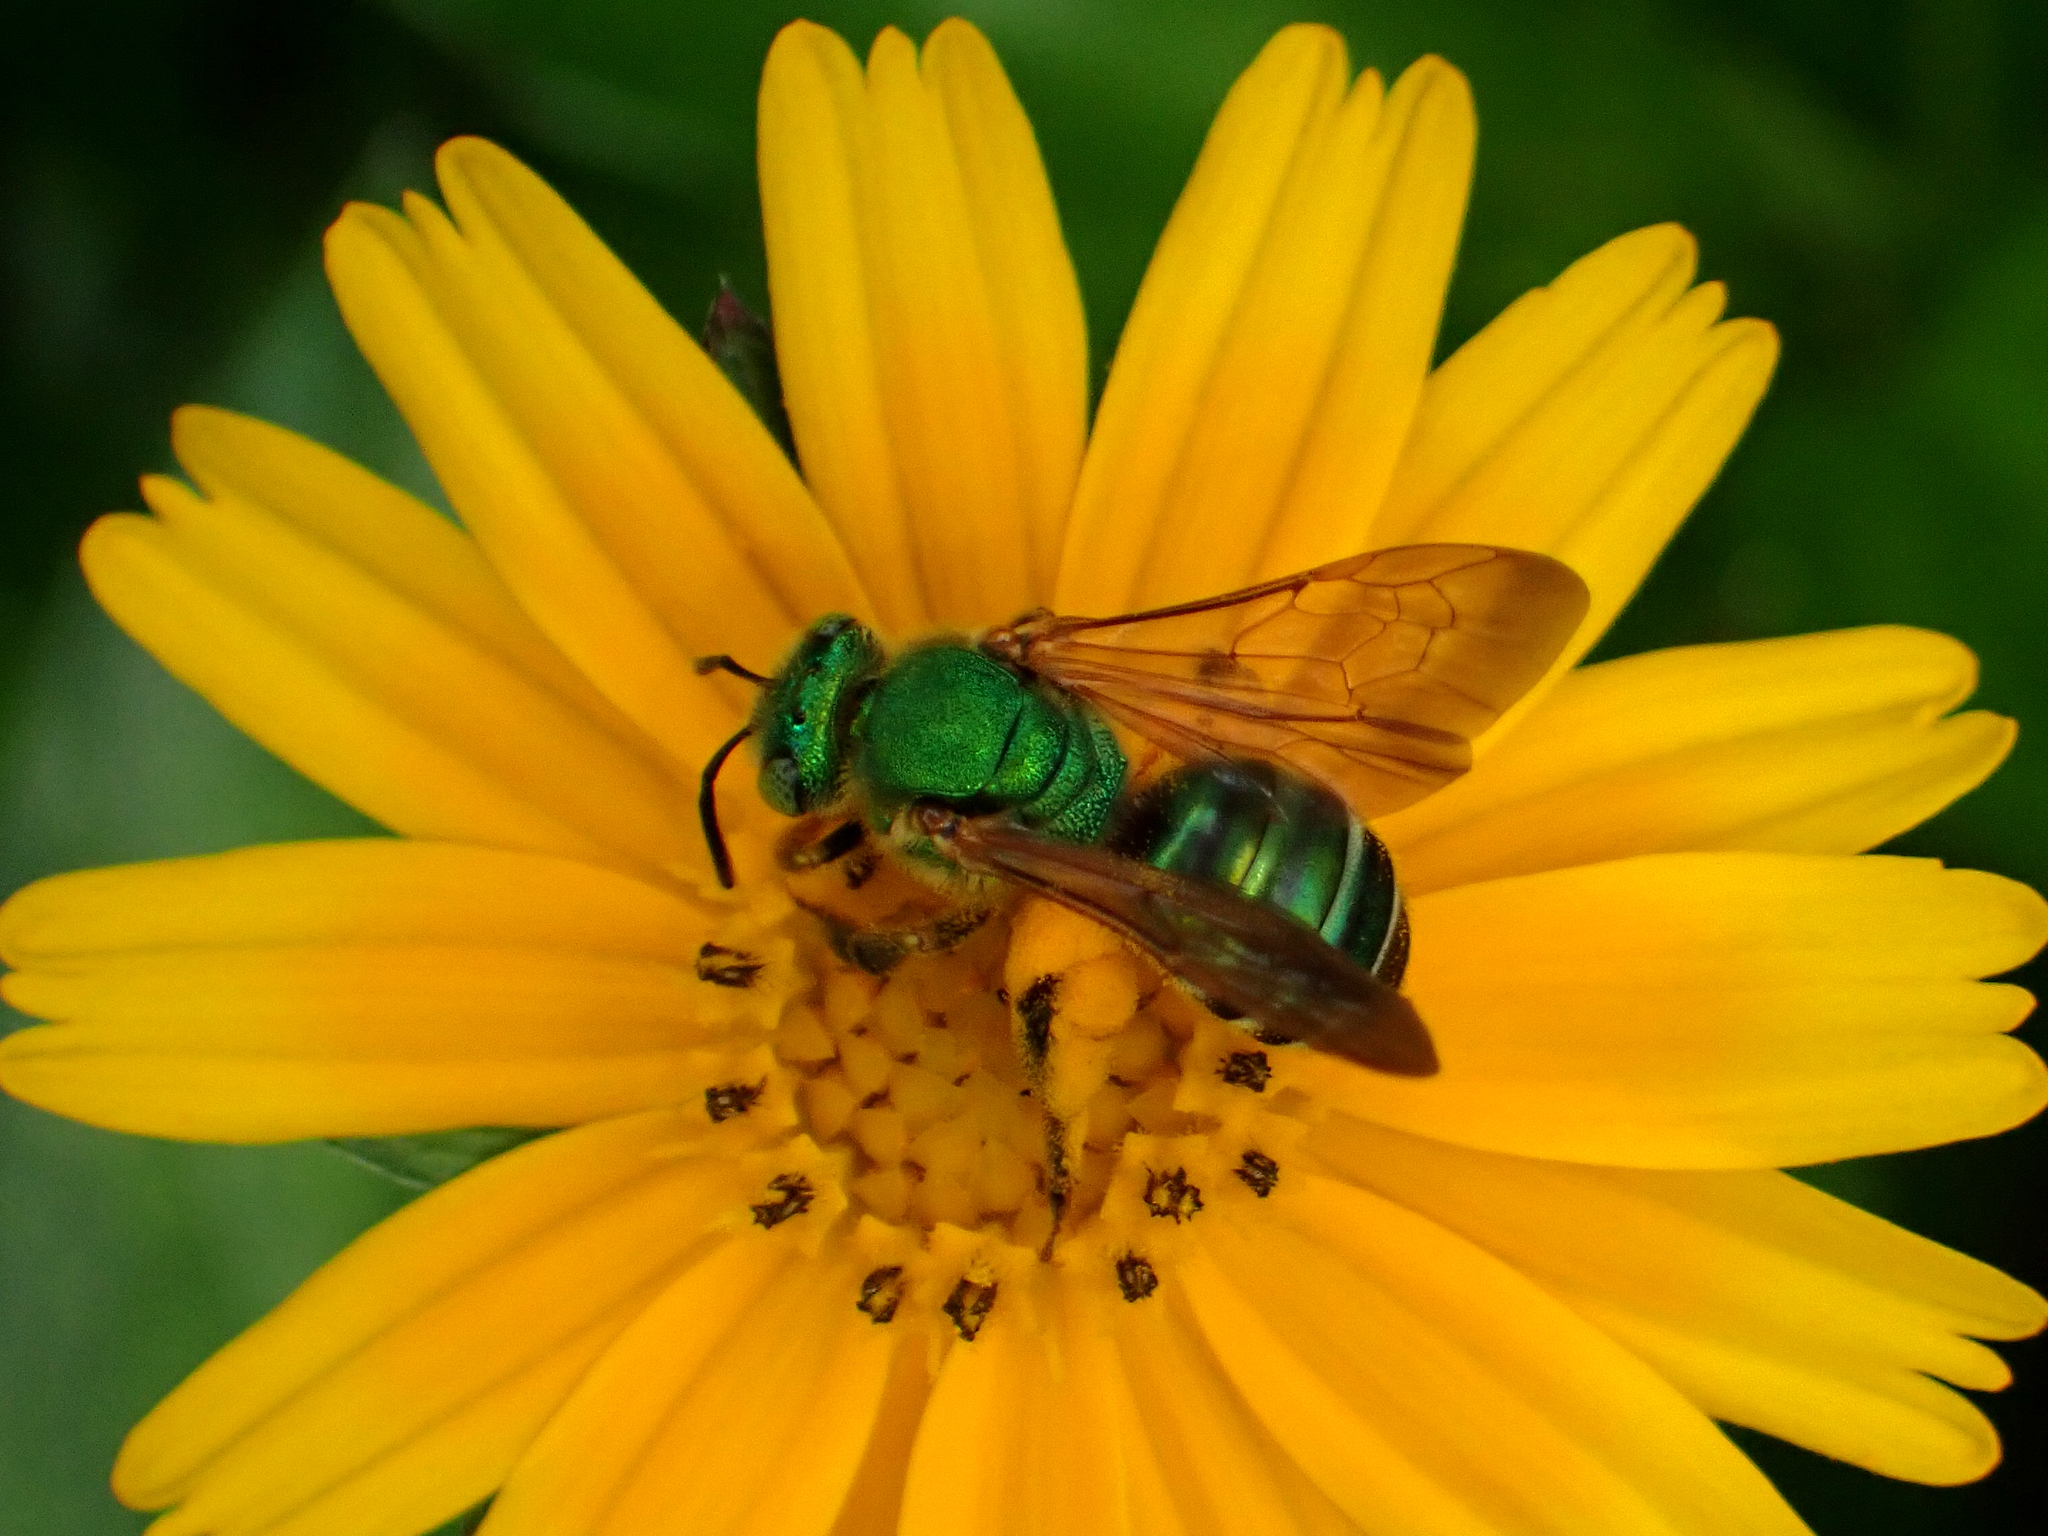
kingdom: Animalia
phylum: Arthropoda
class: Insecta
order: Hymenoptera
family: Halictidae
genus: Agapostemon
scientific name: Agapostemon splendens
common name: Brown-winged striped sweat bee
